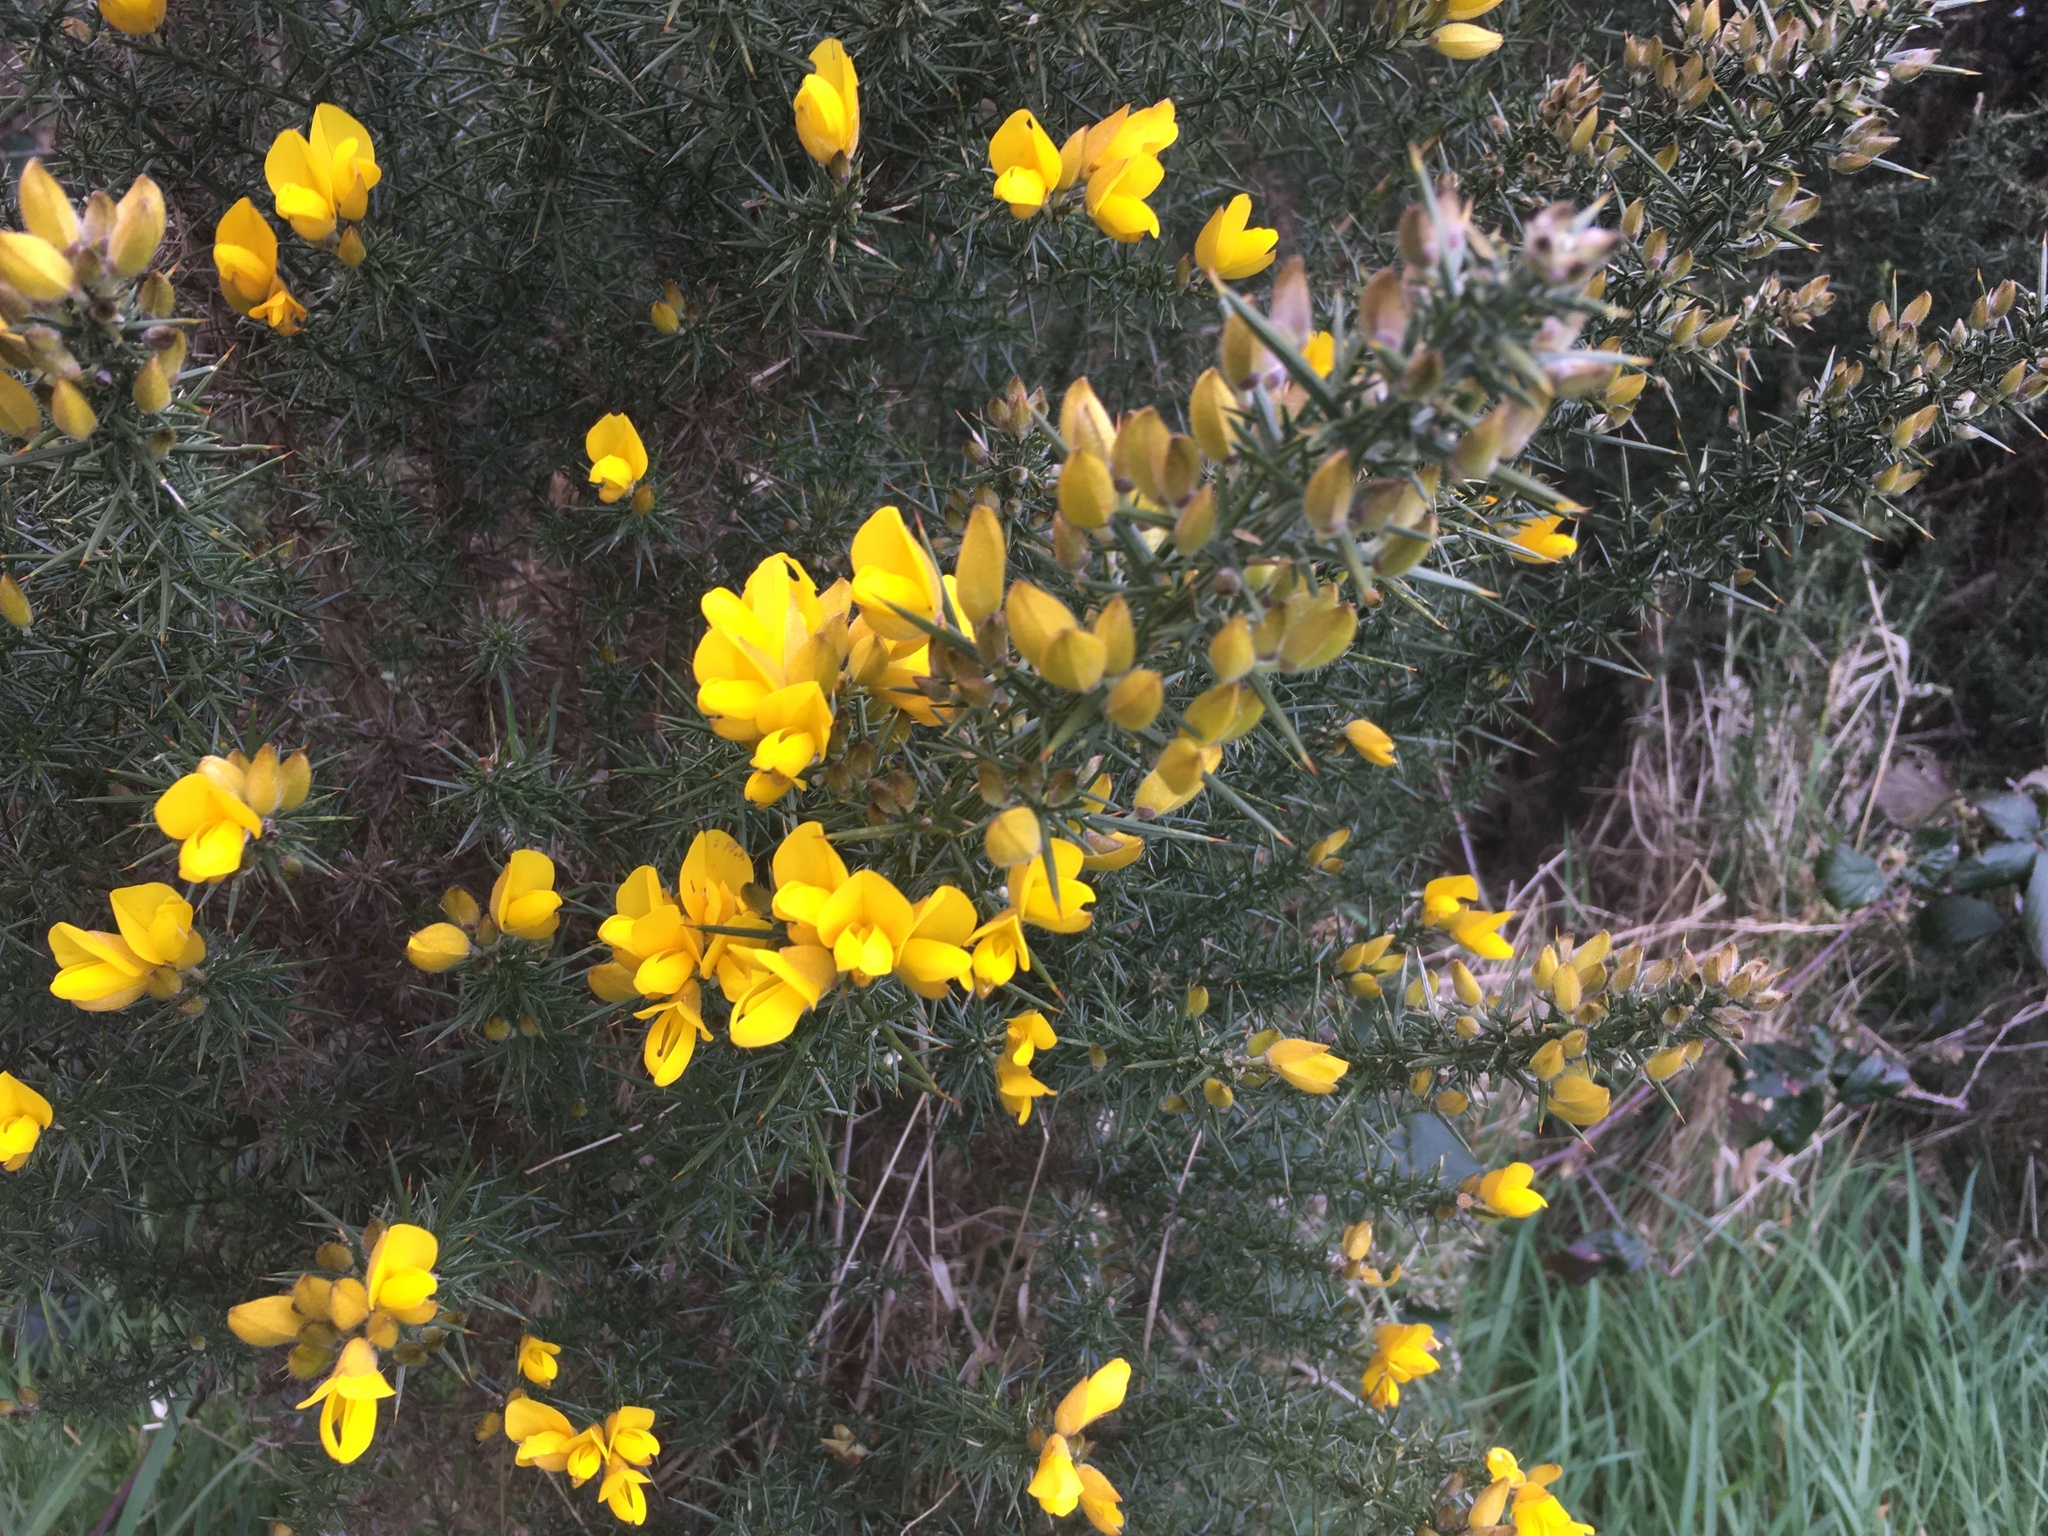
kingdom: Plantae
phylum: Tracheophyta
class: Magnoliopsida
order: Fabales
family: Fabaceae
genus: Ulex
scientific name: Ulex europaeus
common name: Common gorse
